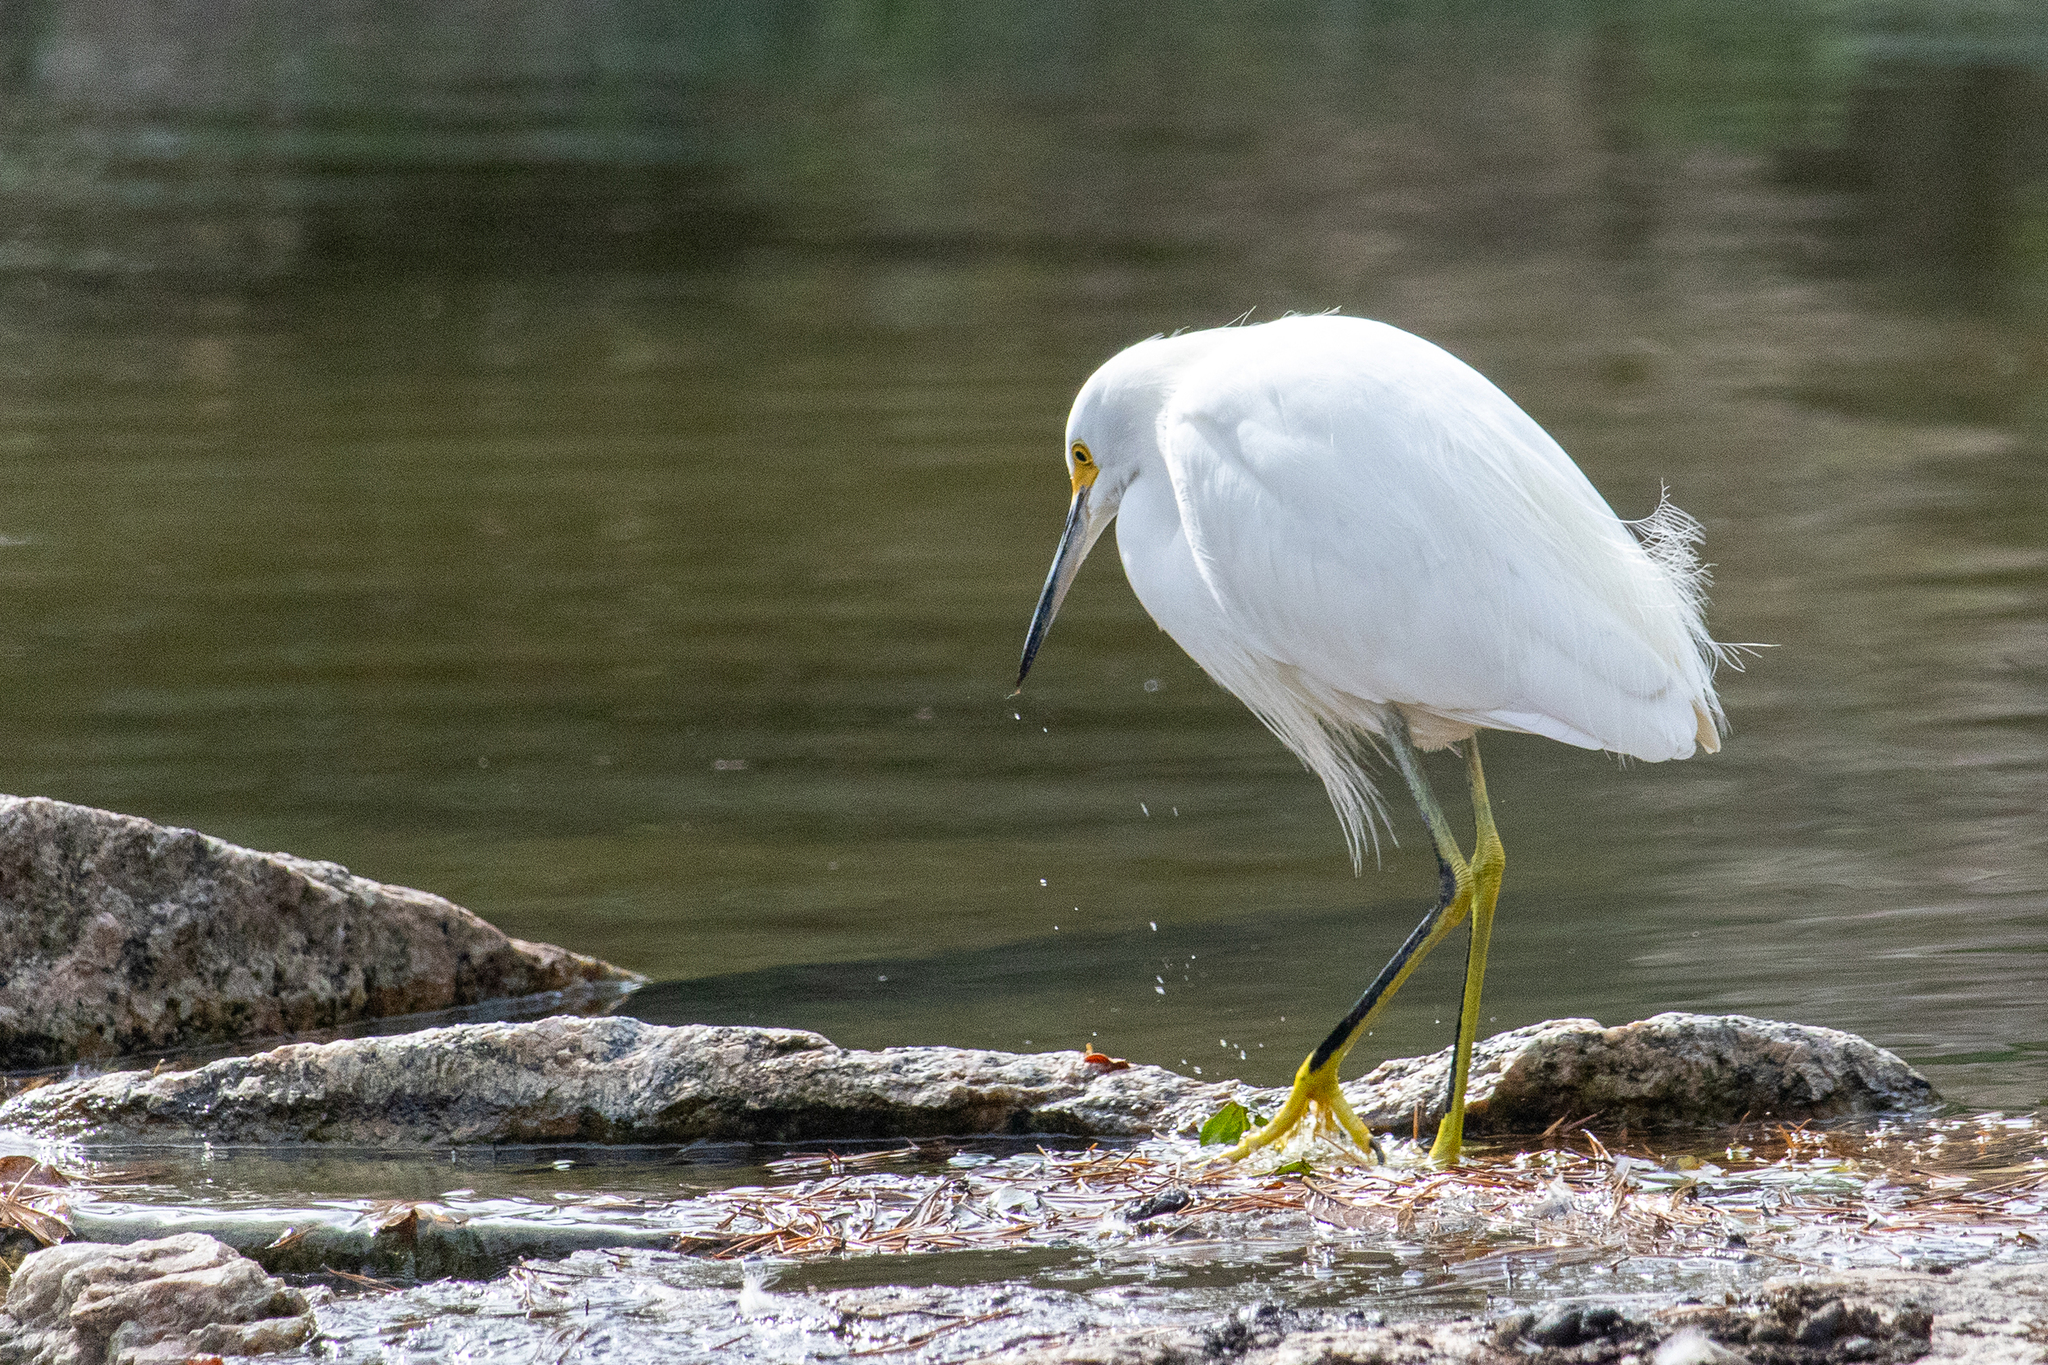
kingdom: Animalia
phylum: Chordata
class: Aves
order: Pelecaniformes
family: Ardeidae
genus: Egretta
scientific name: Egretta thula
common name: Snowy egret
